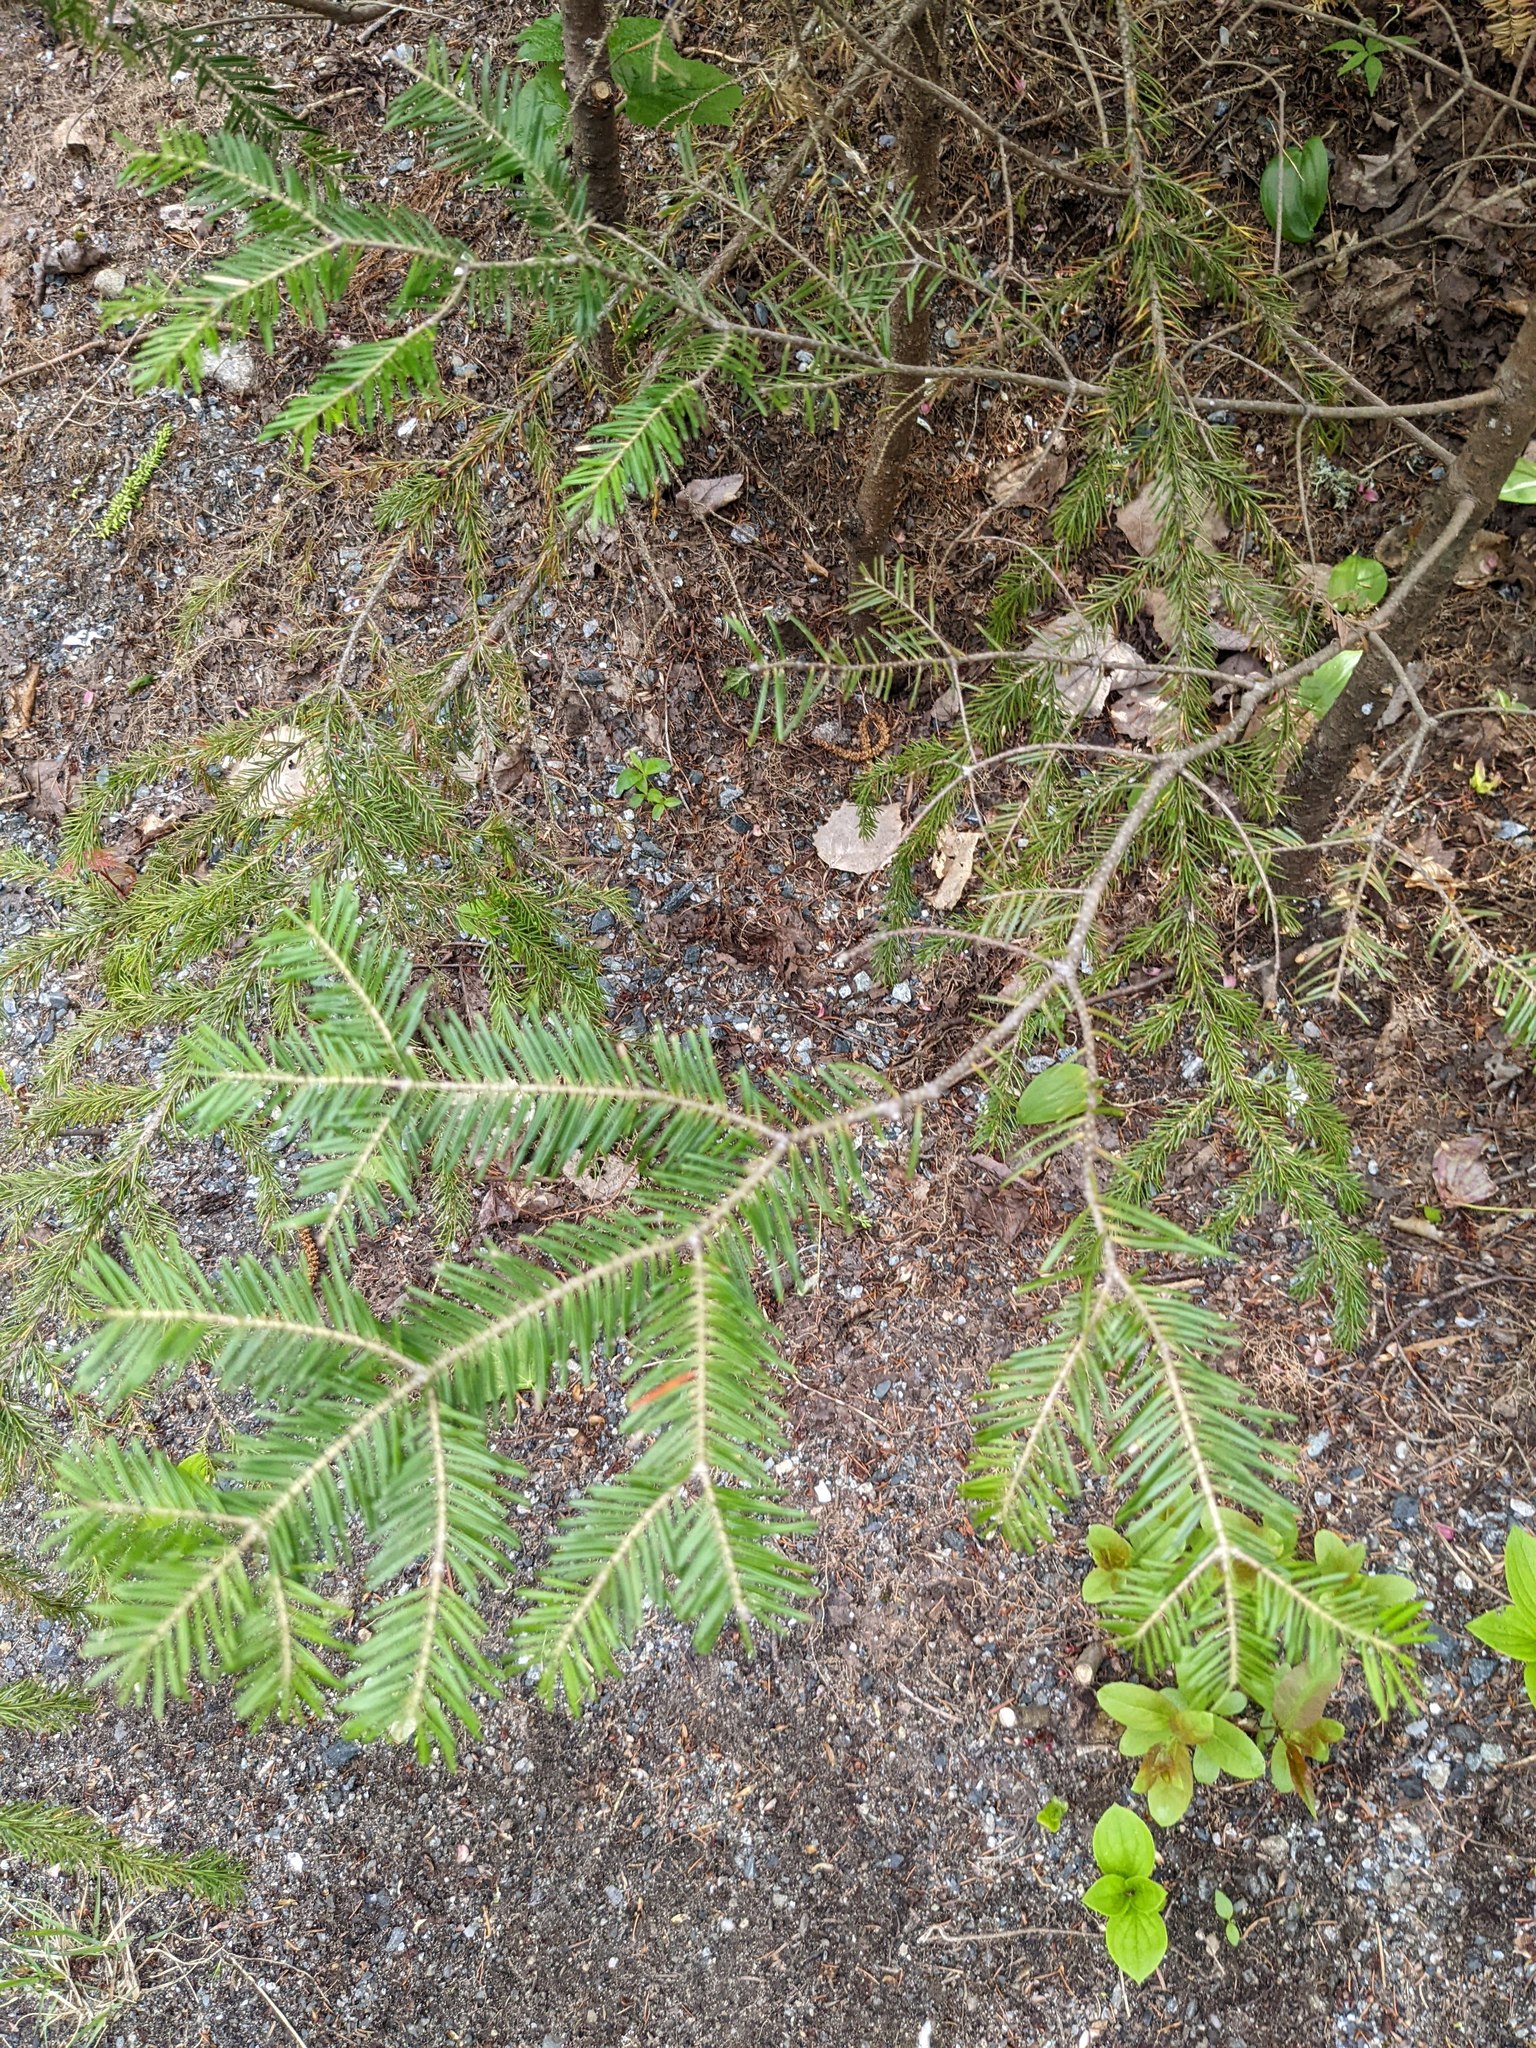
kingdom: Plantae
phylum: Tracheophyta
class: Pinopsida
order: Pinales
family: Pinaceae
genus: Abies
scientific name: Abies balsamea
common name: Balsam fir
